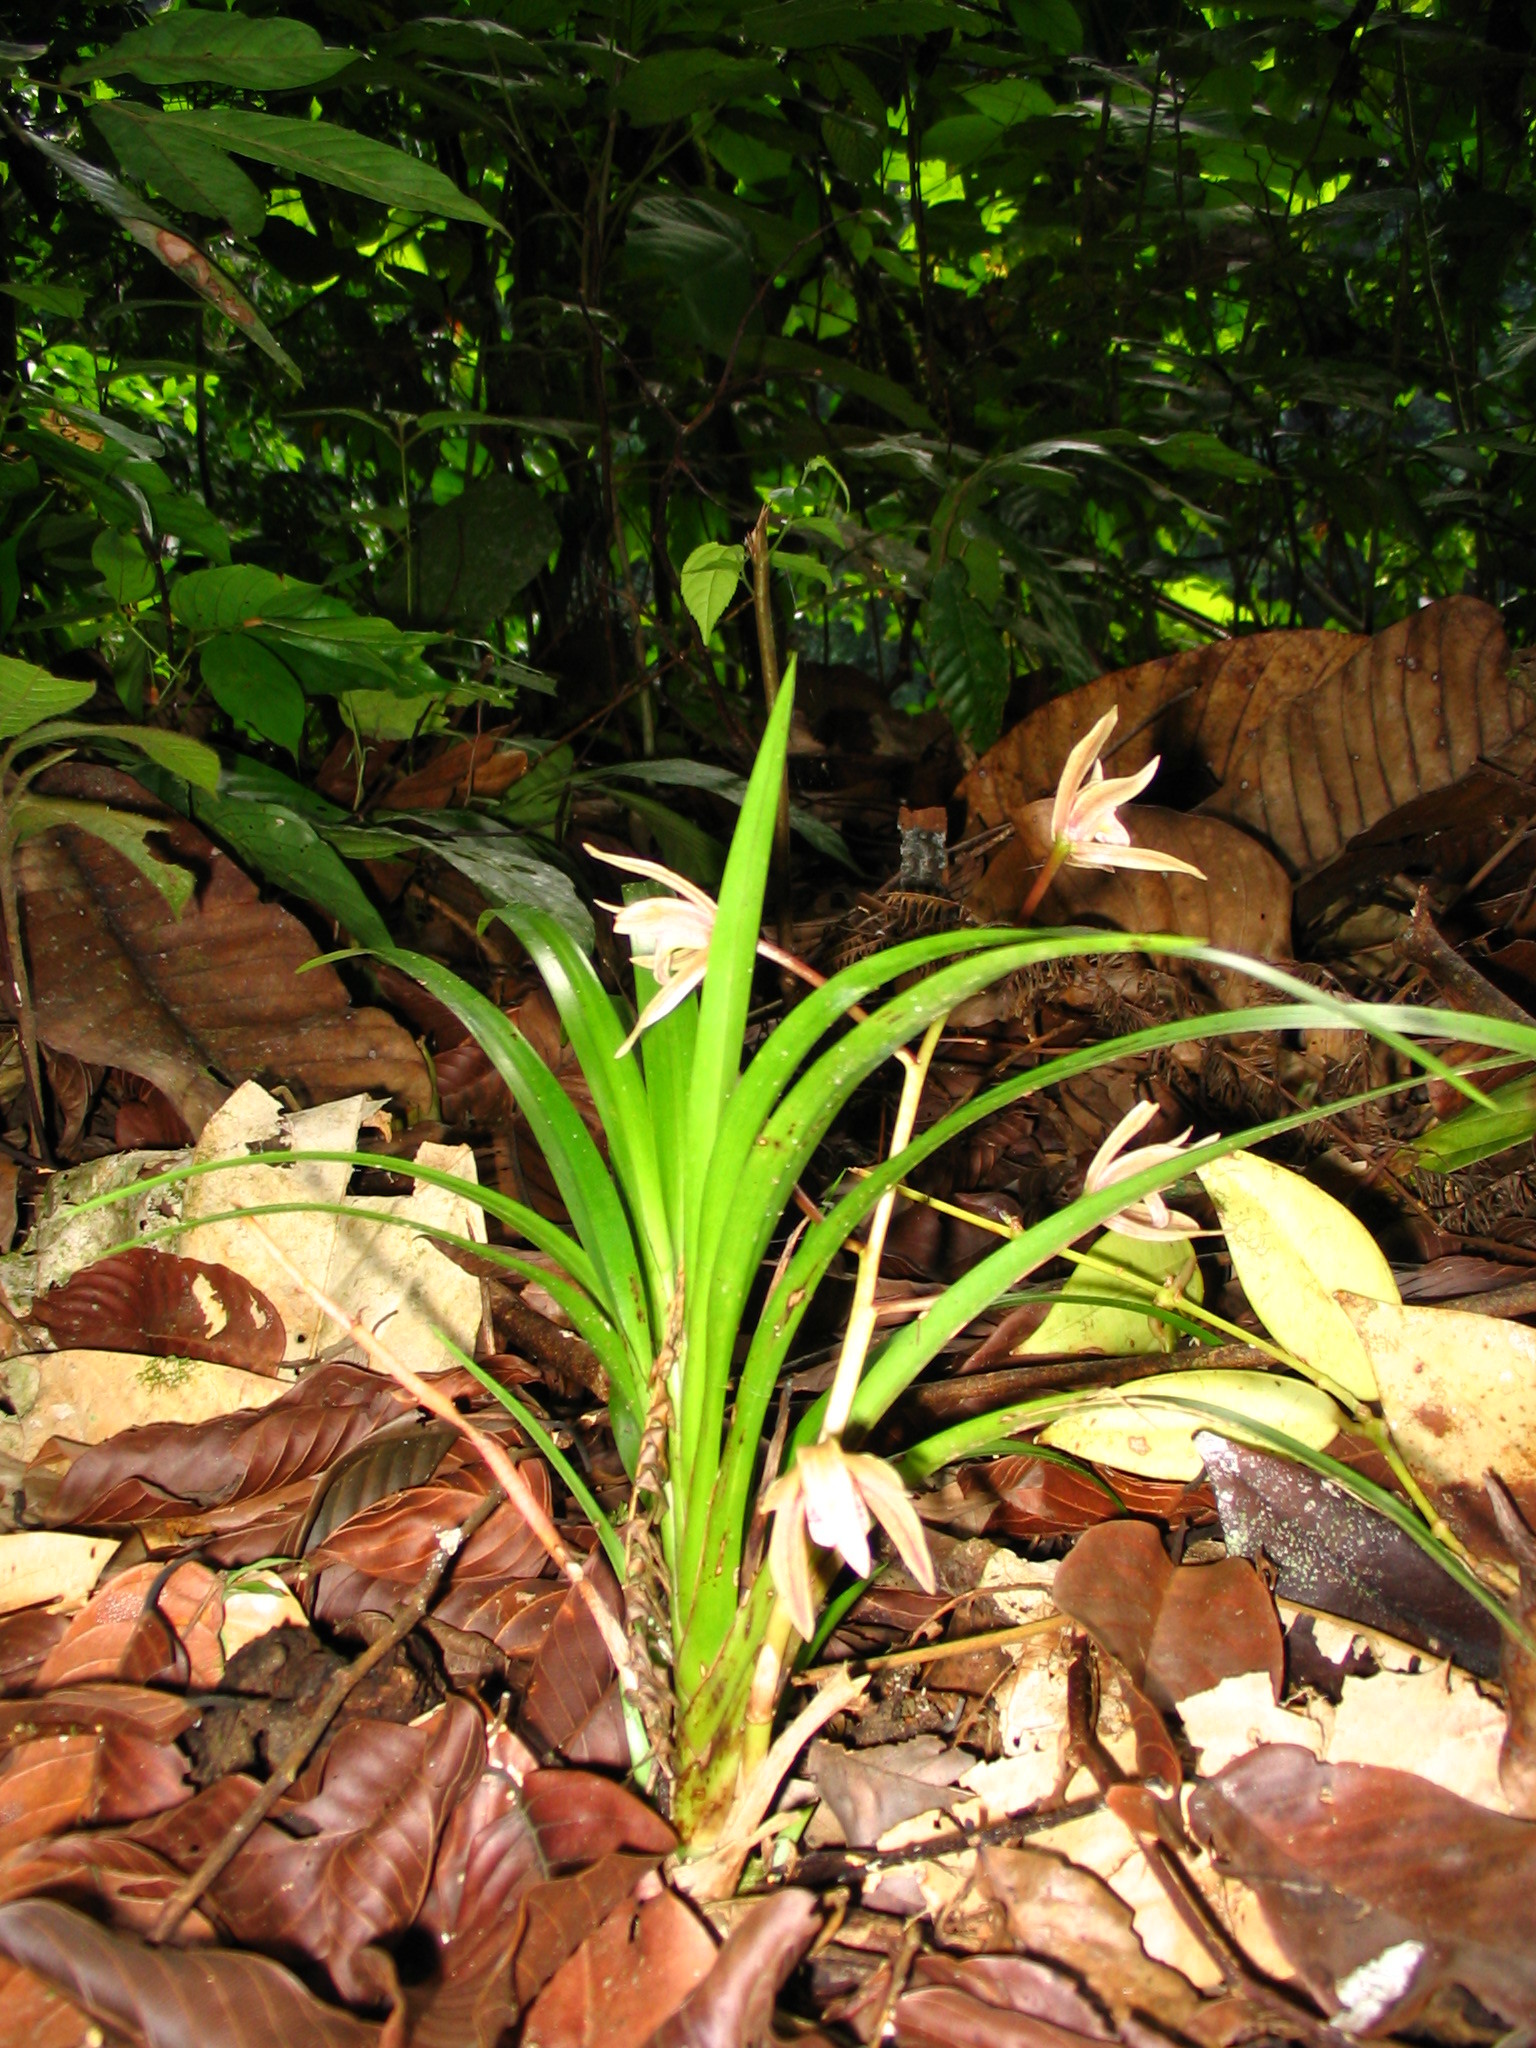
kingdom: Plantae
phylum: Tracheophyta
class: Liliopsida
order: Asparagales
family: Orchidaceae
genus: Cymbidium
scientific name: Cymbidium elongatum
